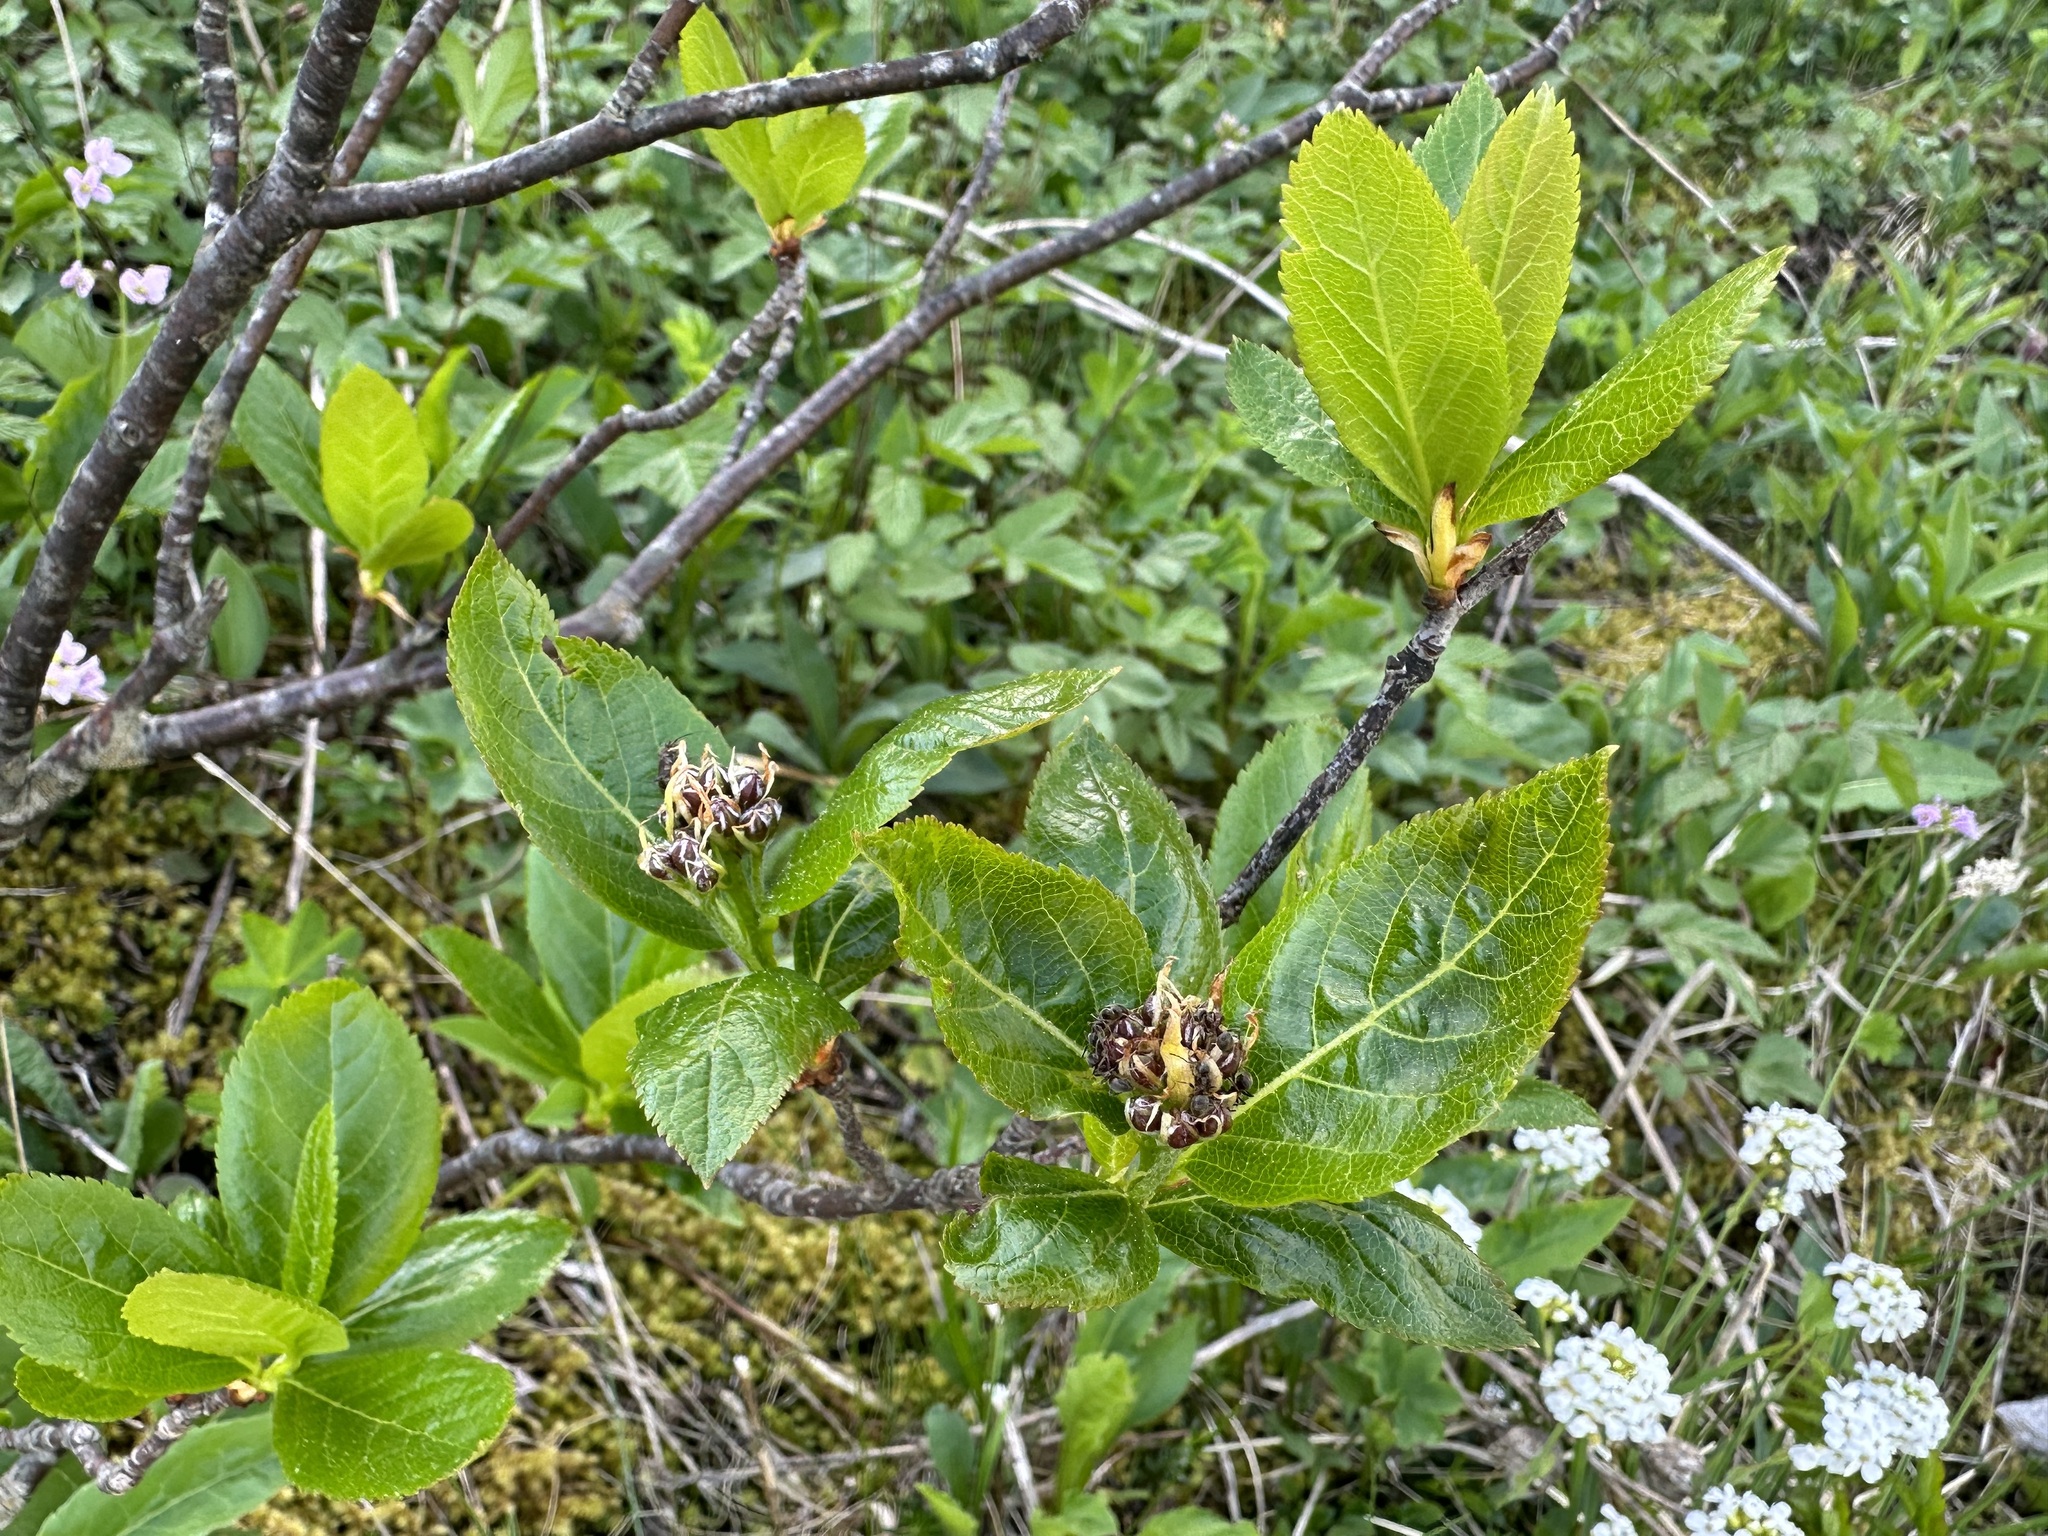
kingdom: Plantae
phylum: Tracheophyta
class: Magnoliopsida
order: Rosales
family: Rosaceae
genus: Chamaemespilus
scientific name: Chamaemespilus alpina
